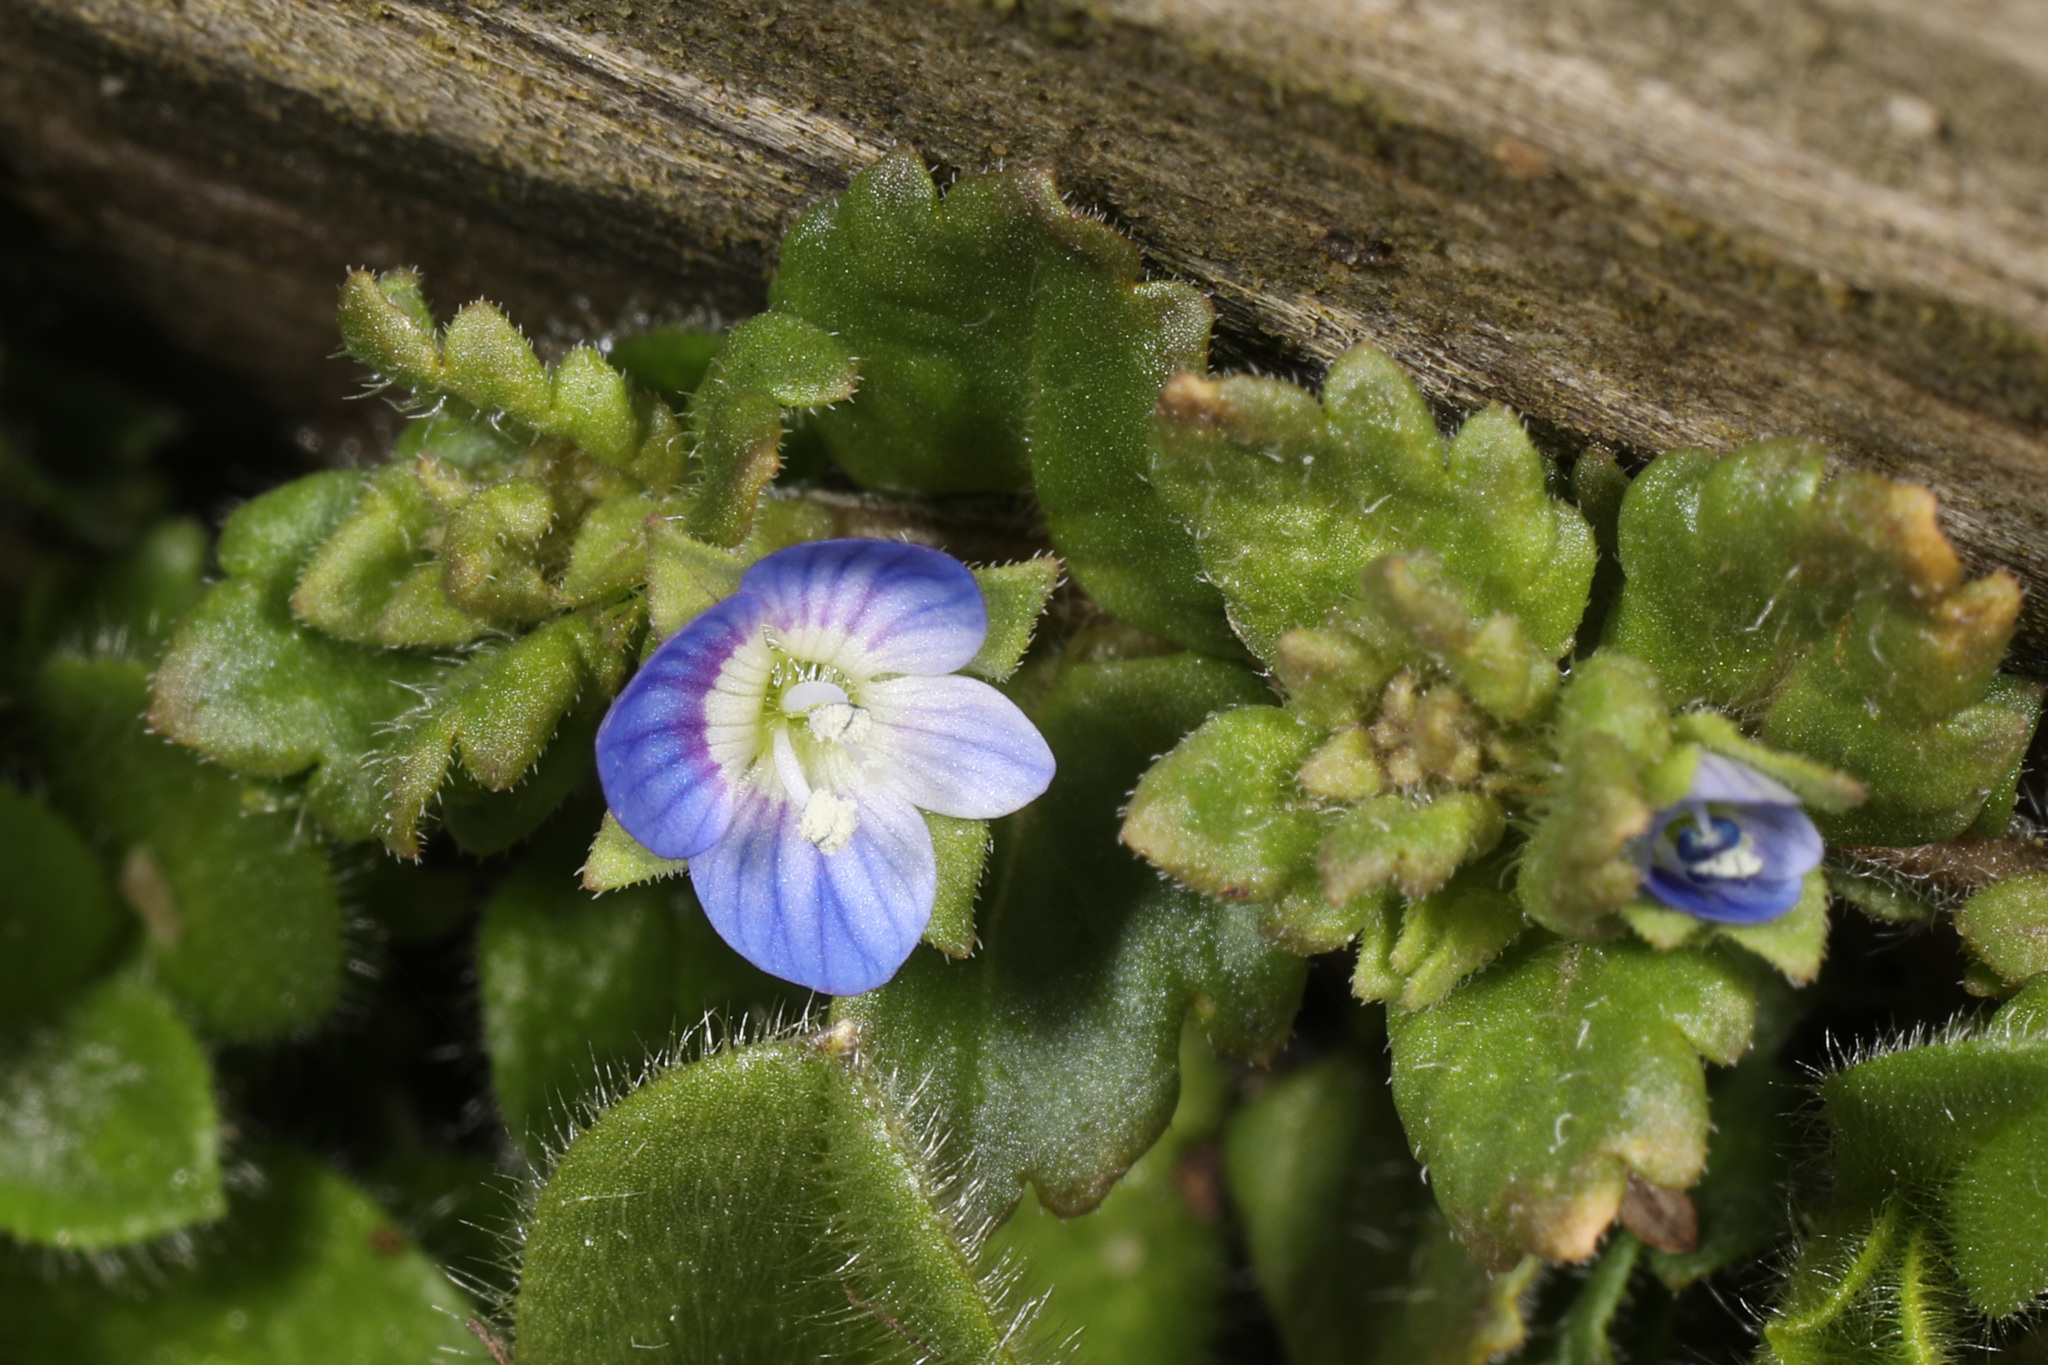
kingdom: Plantae
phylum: Tracheophyta
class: Magnoliopsida
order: Lamiales
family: Plantaginaceae
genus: Veronica
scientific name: Veronica persica
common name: Common field-speedwell
